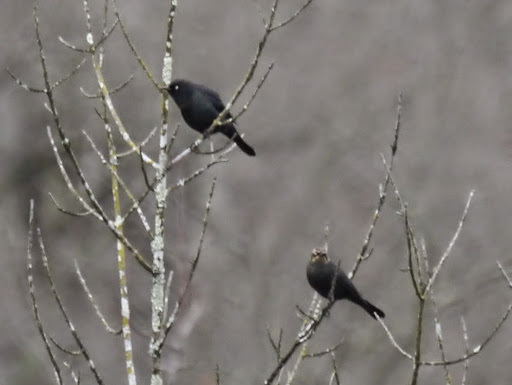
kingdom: Animalia
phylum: Chordata
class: Aves
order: Passeriformes
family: Icteridae
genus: Euphagus
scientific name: Euphagus carolinus
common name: Rusty blackbird
